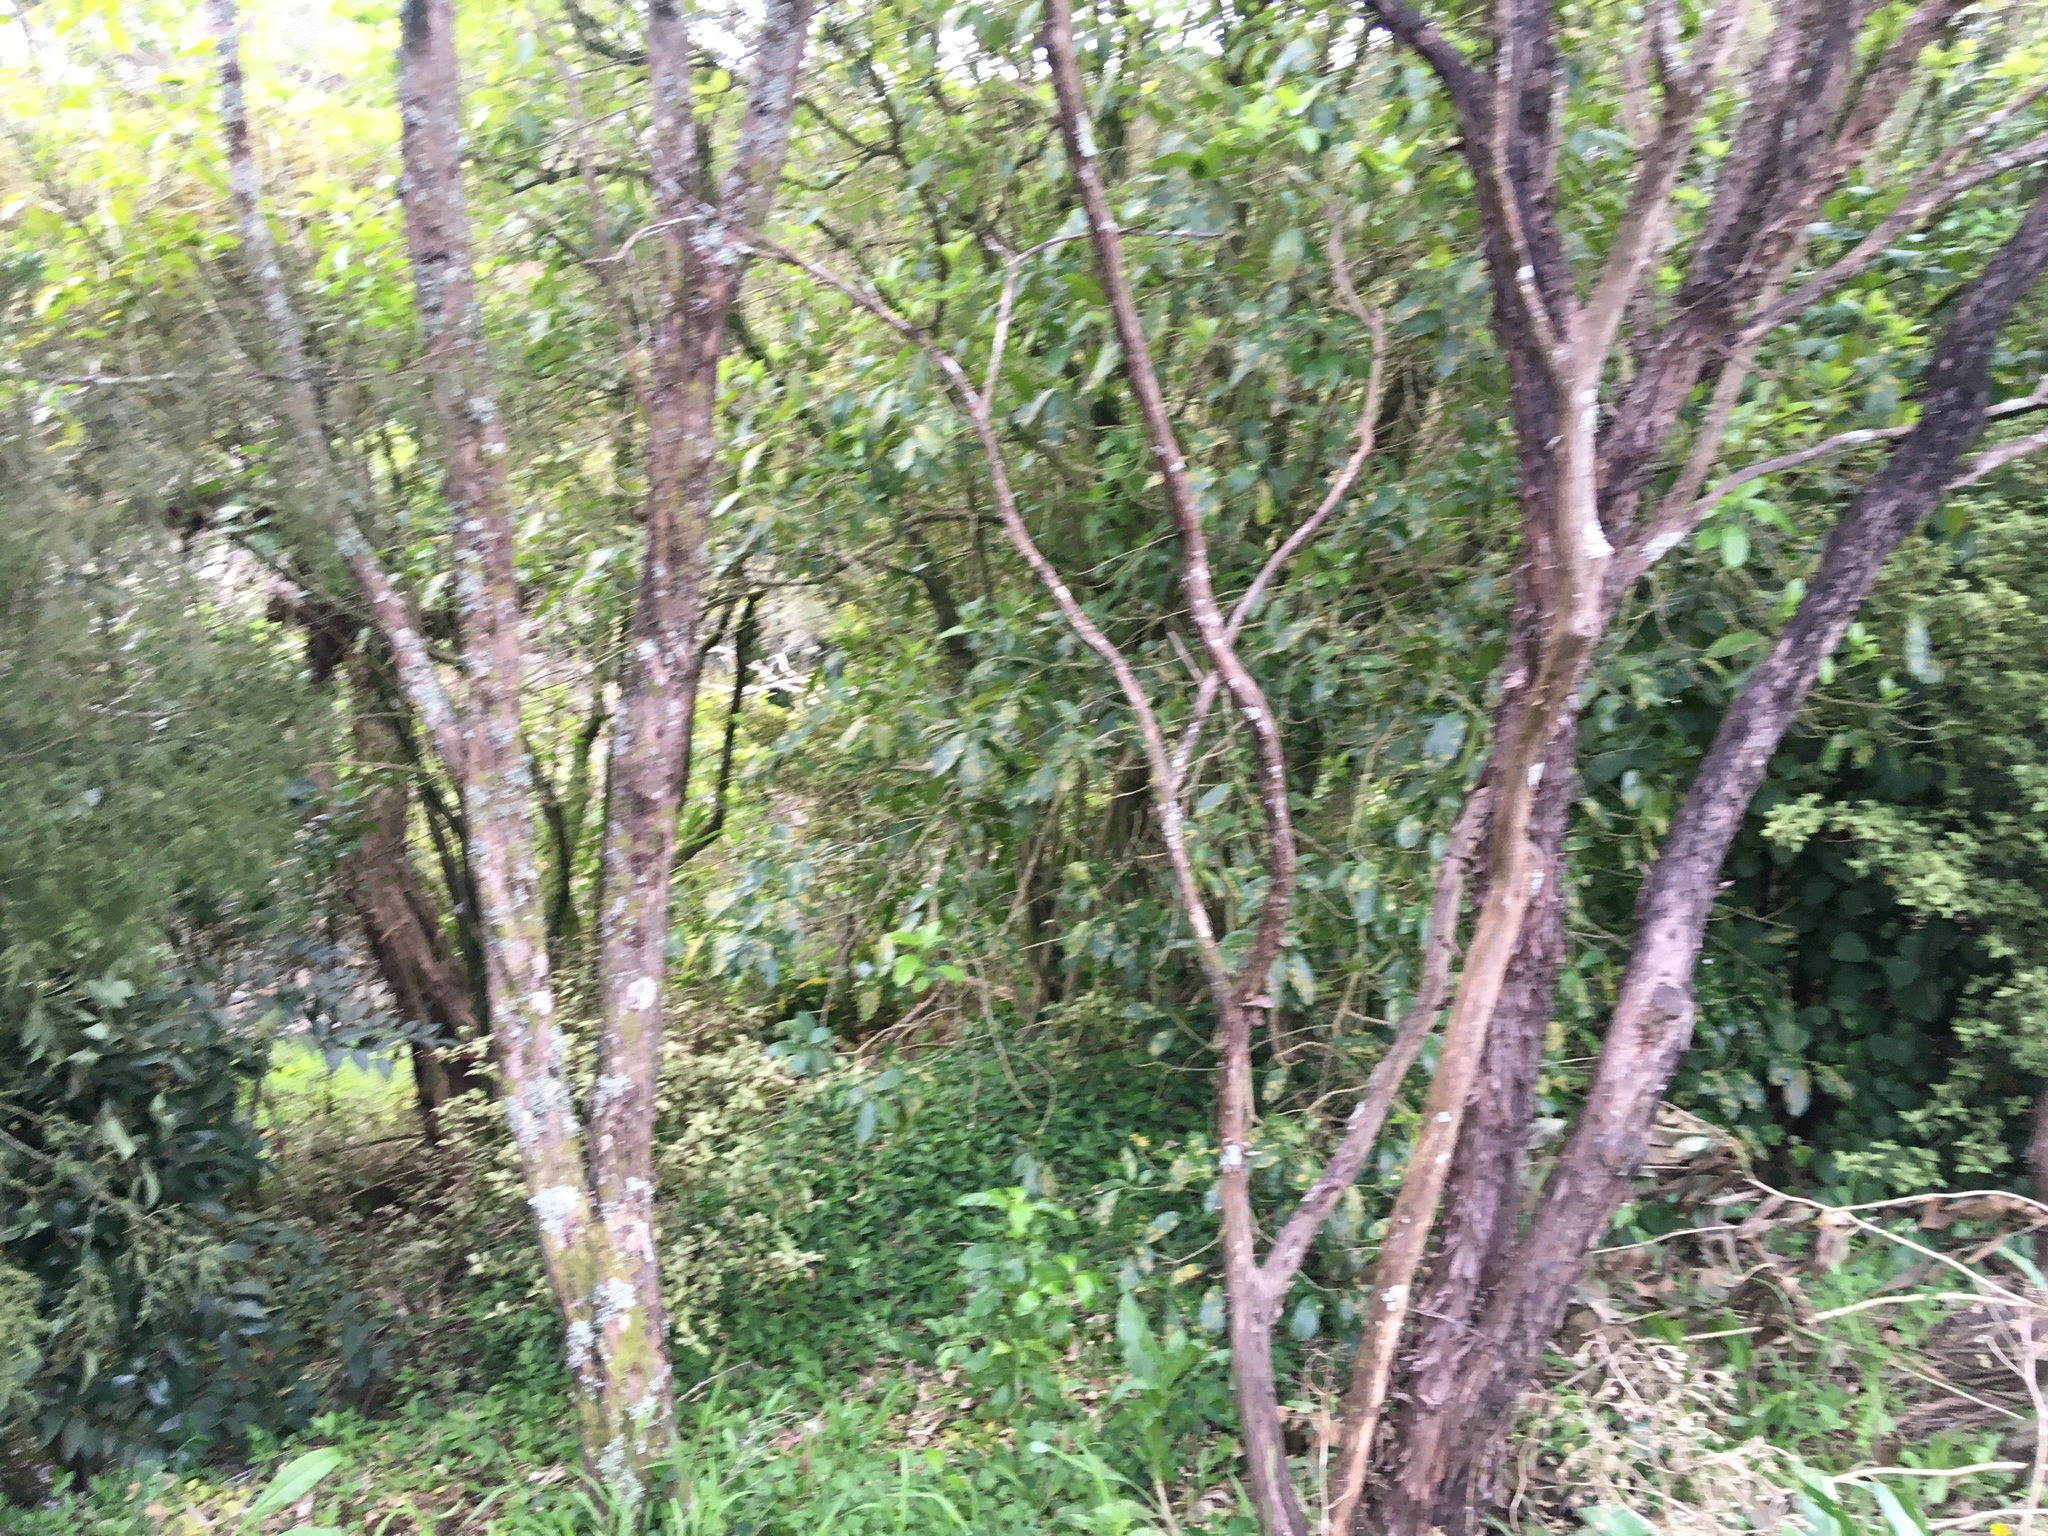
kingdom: Plantae
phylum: Tracheophyta
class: Liliopsida
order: Commelinales
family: Commelinaceae
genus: Tradescantia
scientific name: Tradescantia fluminensis
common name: Wandering-jew
